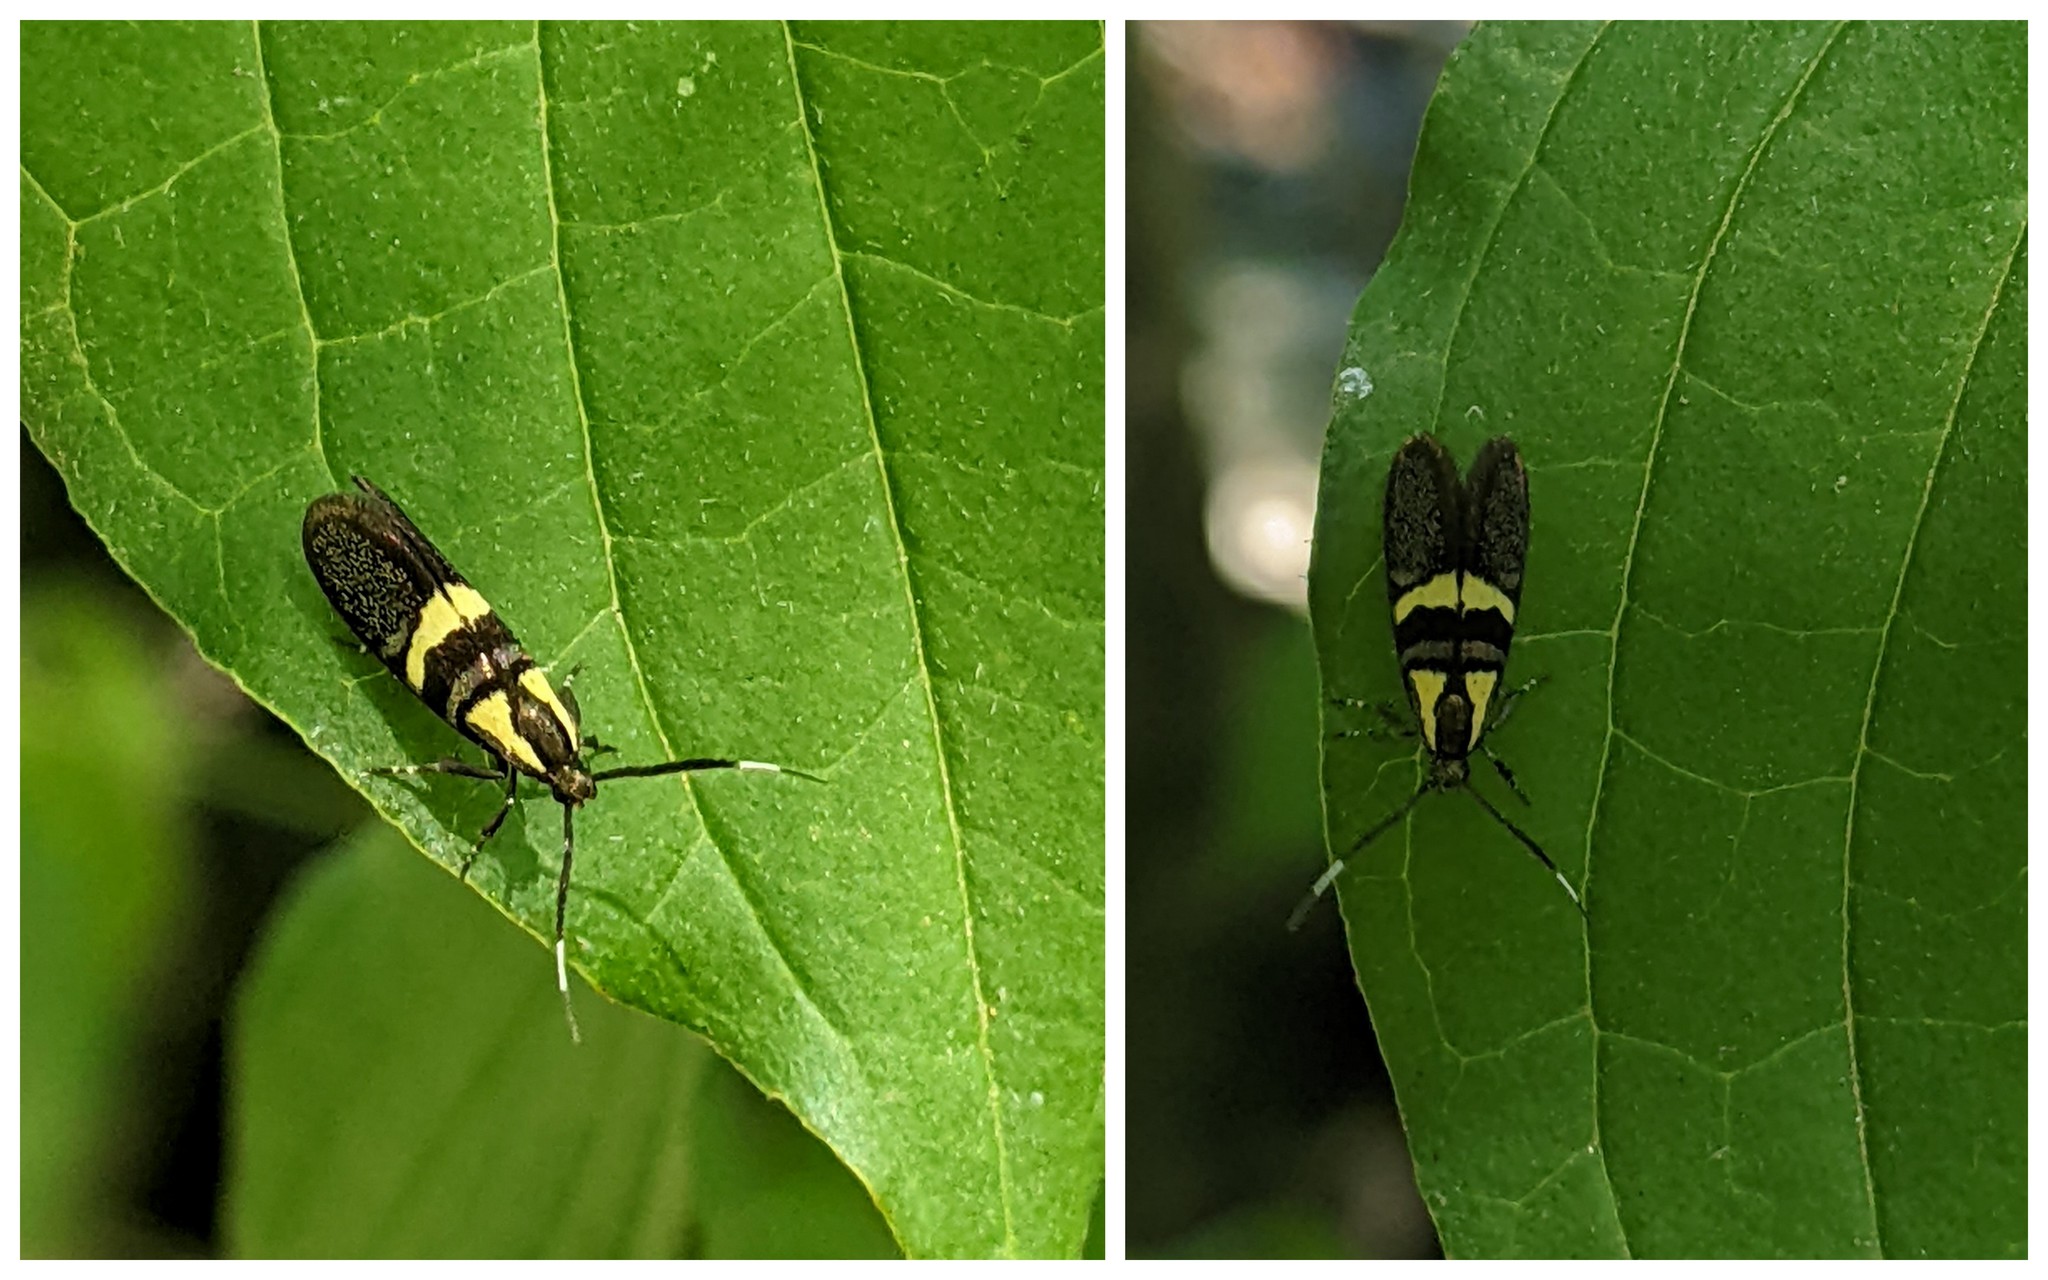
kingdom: Animalia
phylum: Arthropoda
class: Insecta
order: Lepidoptera
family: Oecophoridae
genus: Dafa
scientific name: Dafa oliviella
